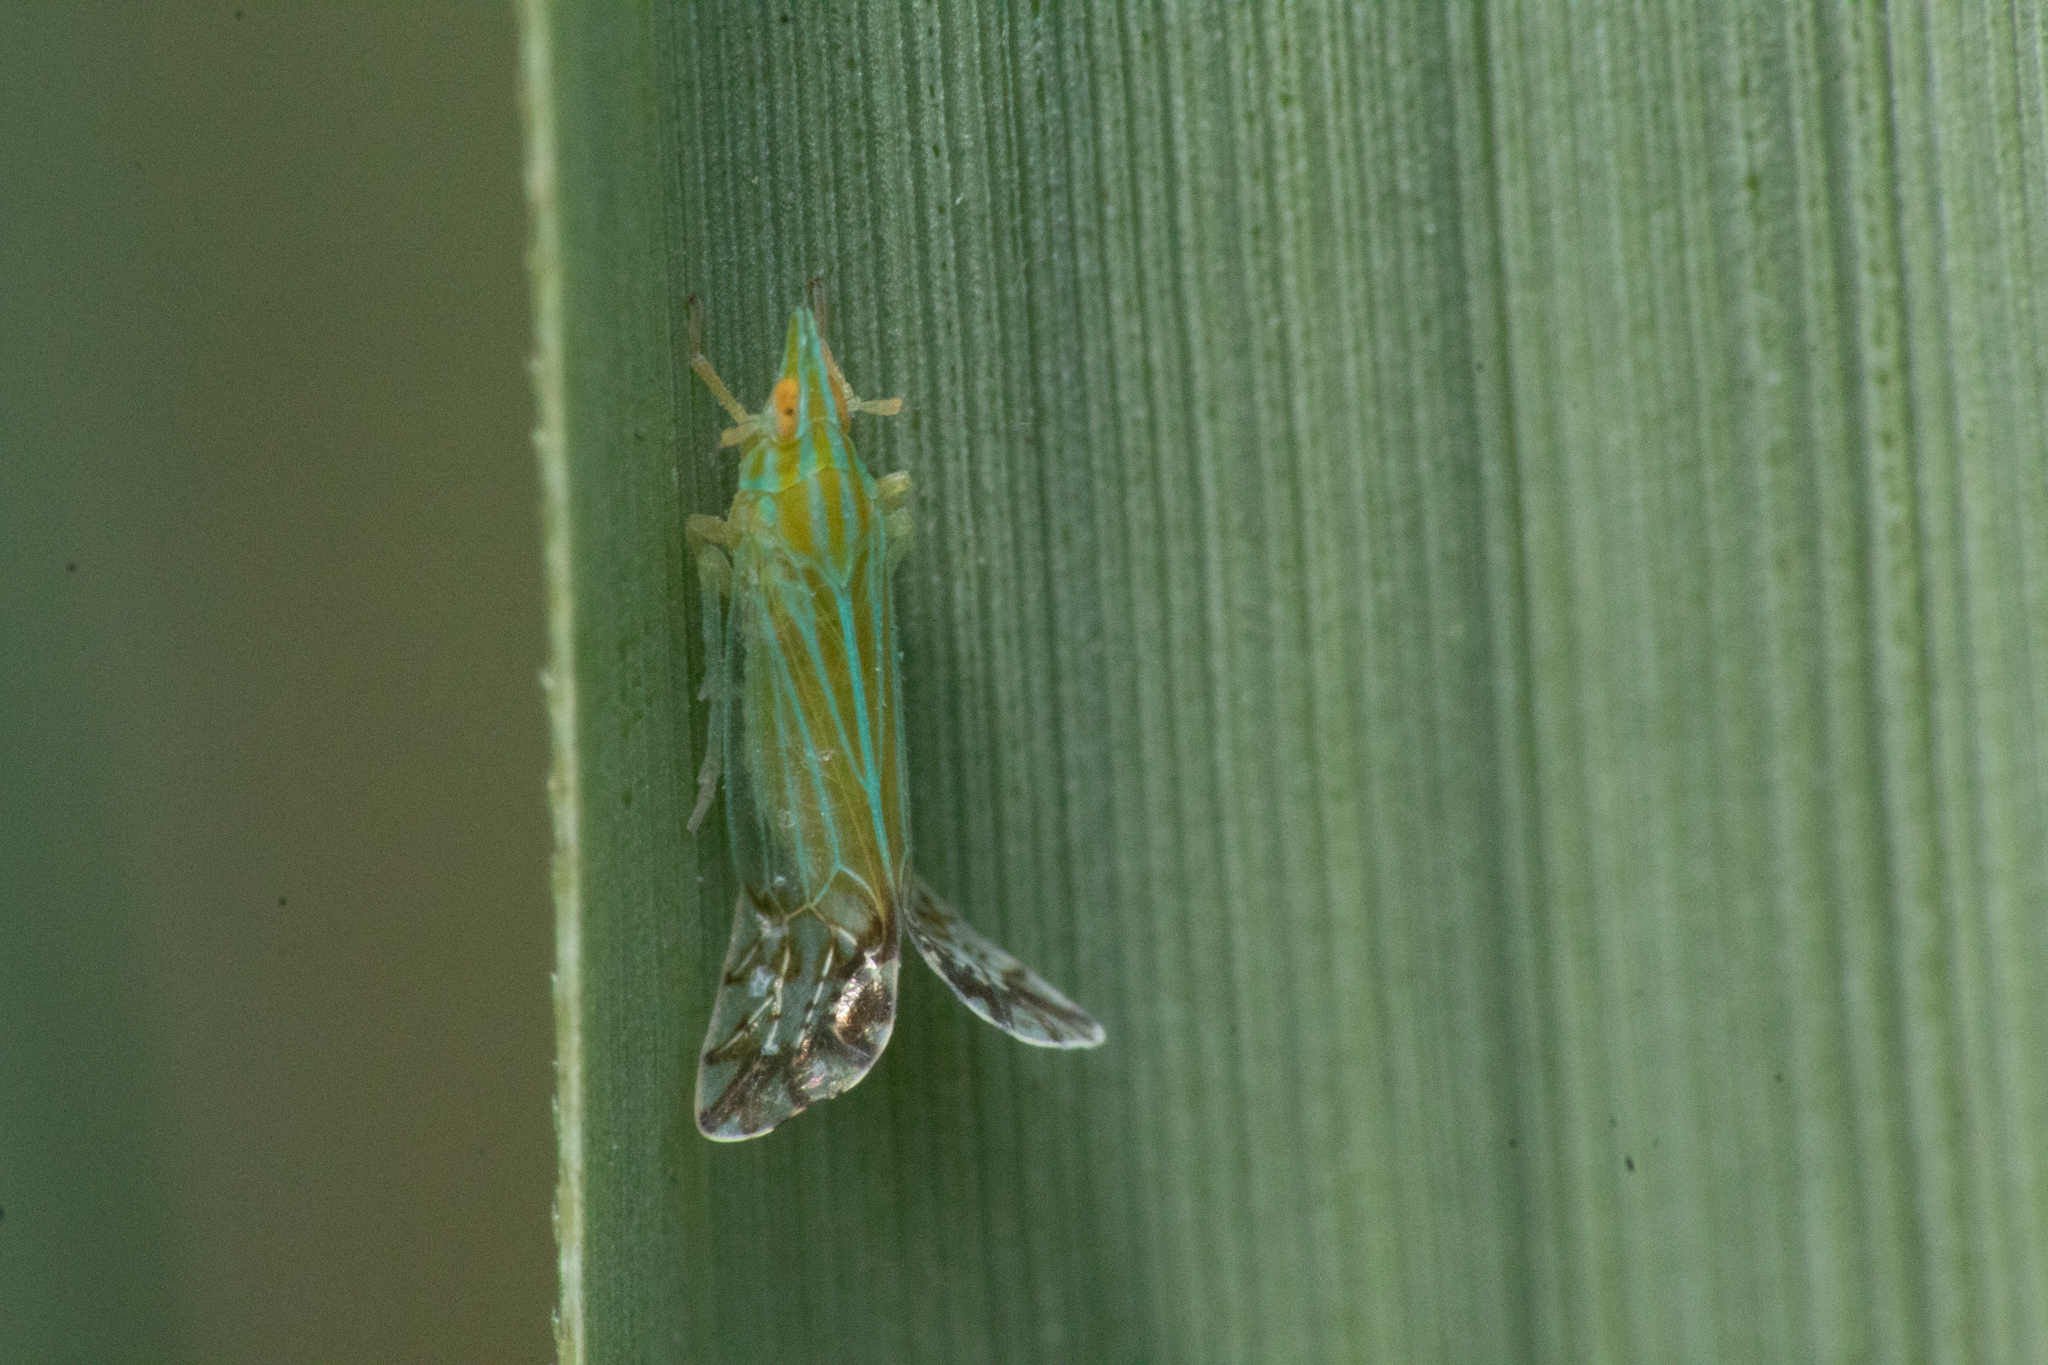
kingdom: Animalia
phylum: Arthropoda
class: Insecta
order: Hemiptera
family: Delphacidae
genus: Pseudomacrocorupha
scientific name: Pseudomacrocorupha wagneri
